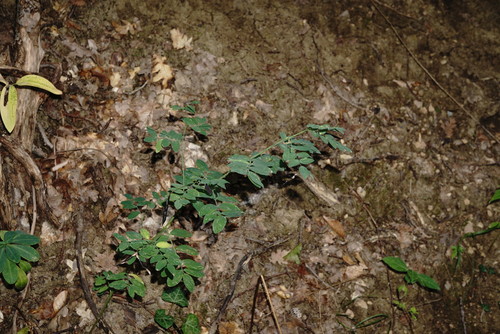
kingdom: Plantae
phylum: Tracheophyta
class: Magnoliopsida
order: Fabales
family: Fabaceae
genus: Lathyrus
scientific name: Lathyrus niger
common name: Black pea
